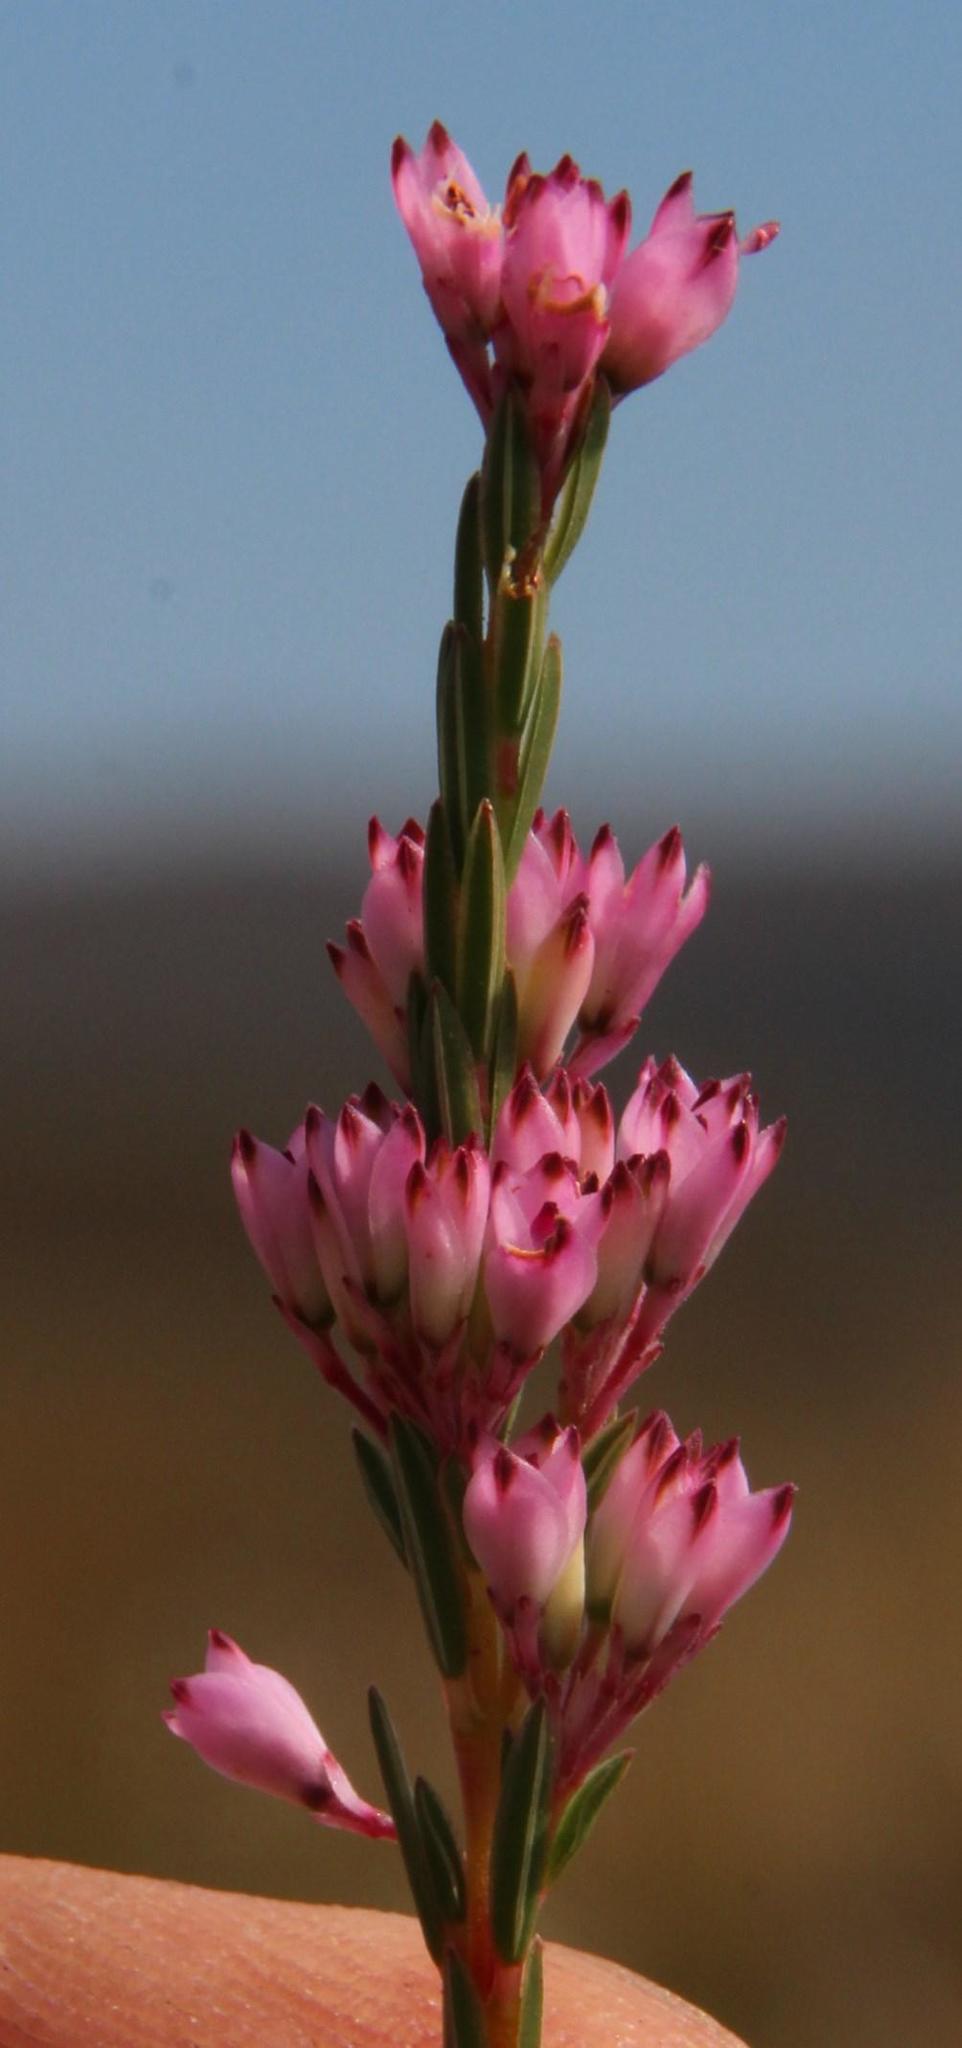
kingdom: Plantae
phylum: Tracheophyta
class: Magnoliopsida
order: Ericales
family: Ericaceae
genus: Erica
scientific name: Erica corifolia
